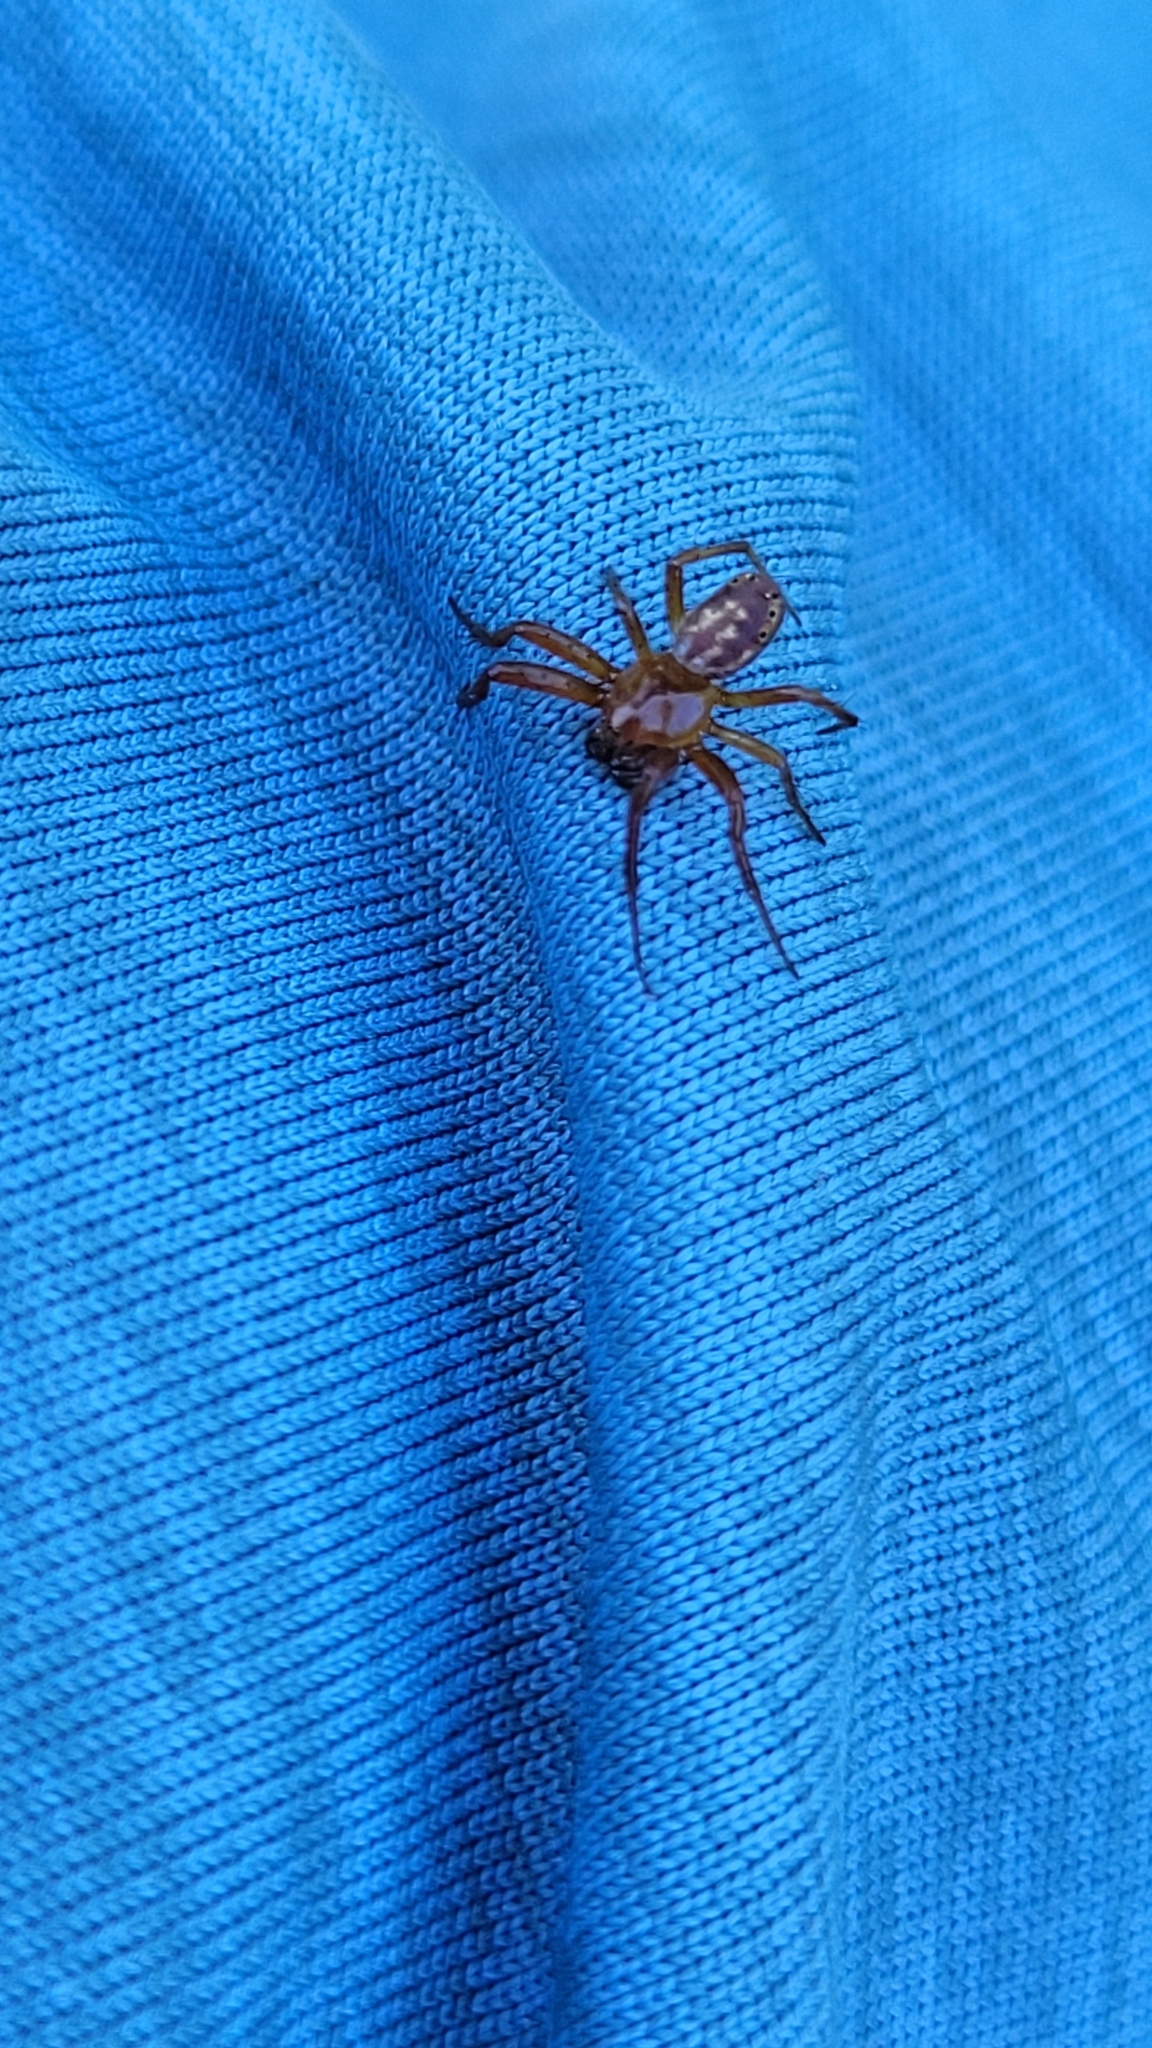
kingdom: Animalia
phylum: Arthropoda
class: Arachnida
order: Araneae
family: Araneidae
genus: Araniella
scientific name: Araniella displicata
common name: Sixspotted orb weaver
